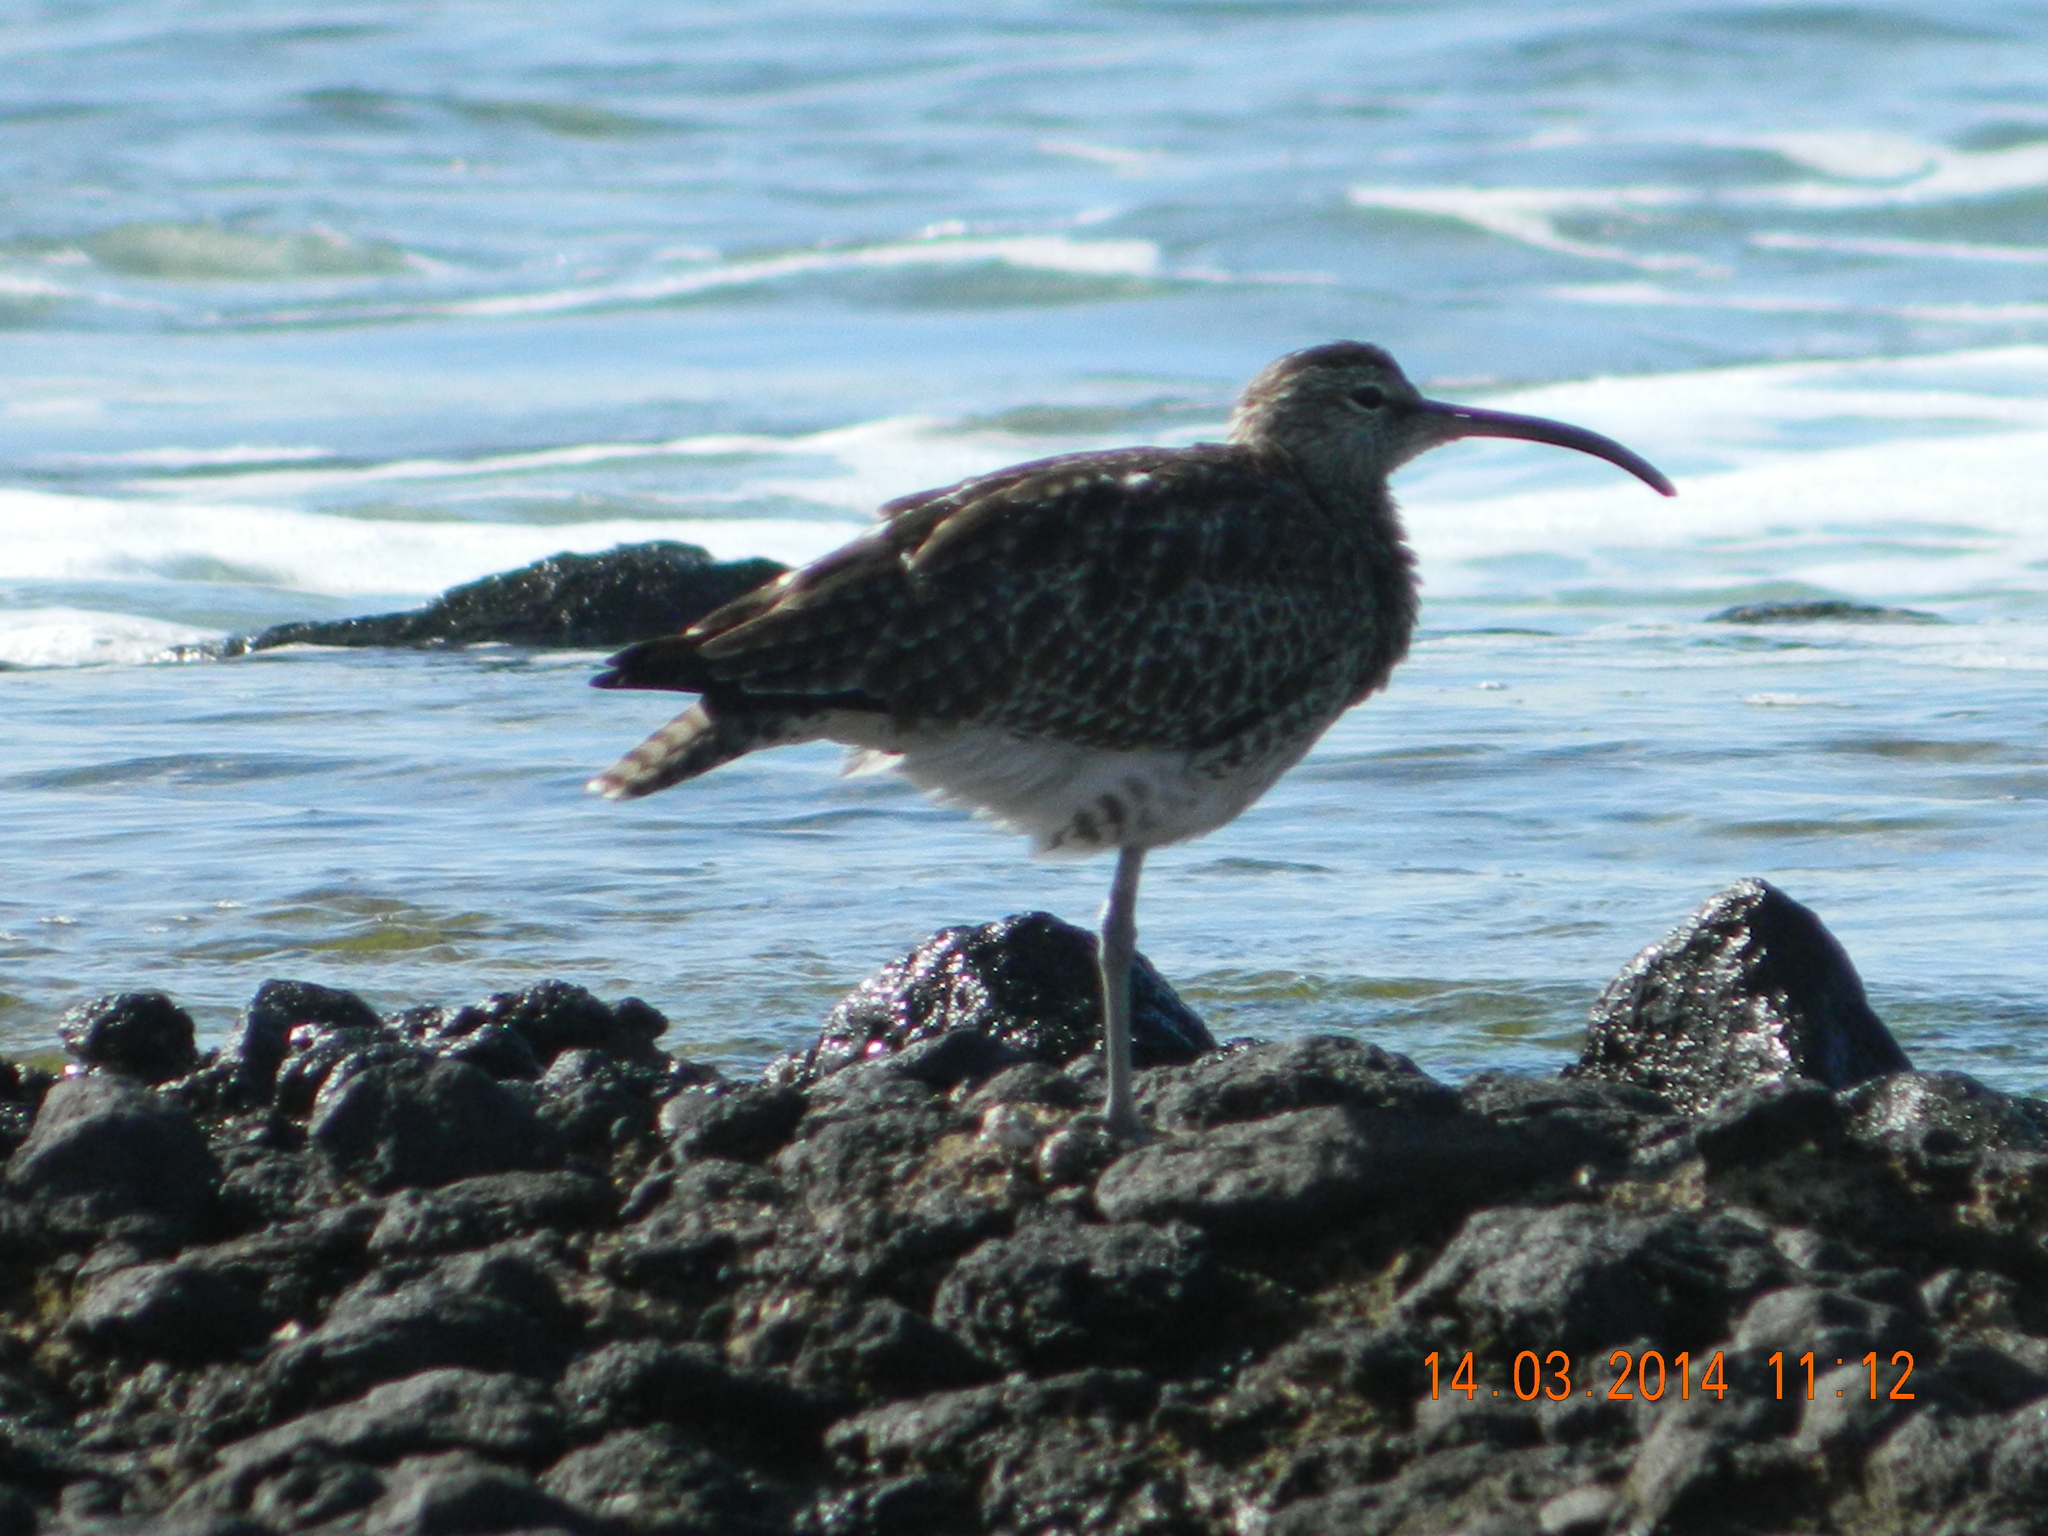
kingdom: Animalia
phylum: Chordata
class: Aves
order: Charadriiformes
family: Scolopacidae
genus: Numenius
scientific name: Numenius phaeopus
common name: Whimbrel
